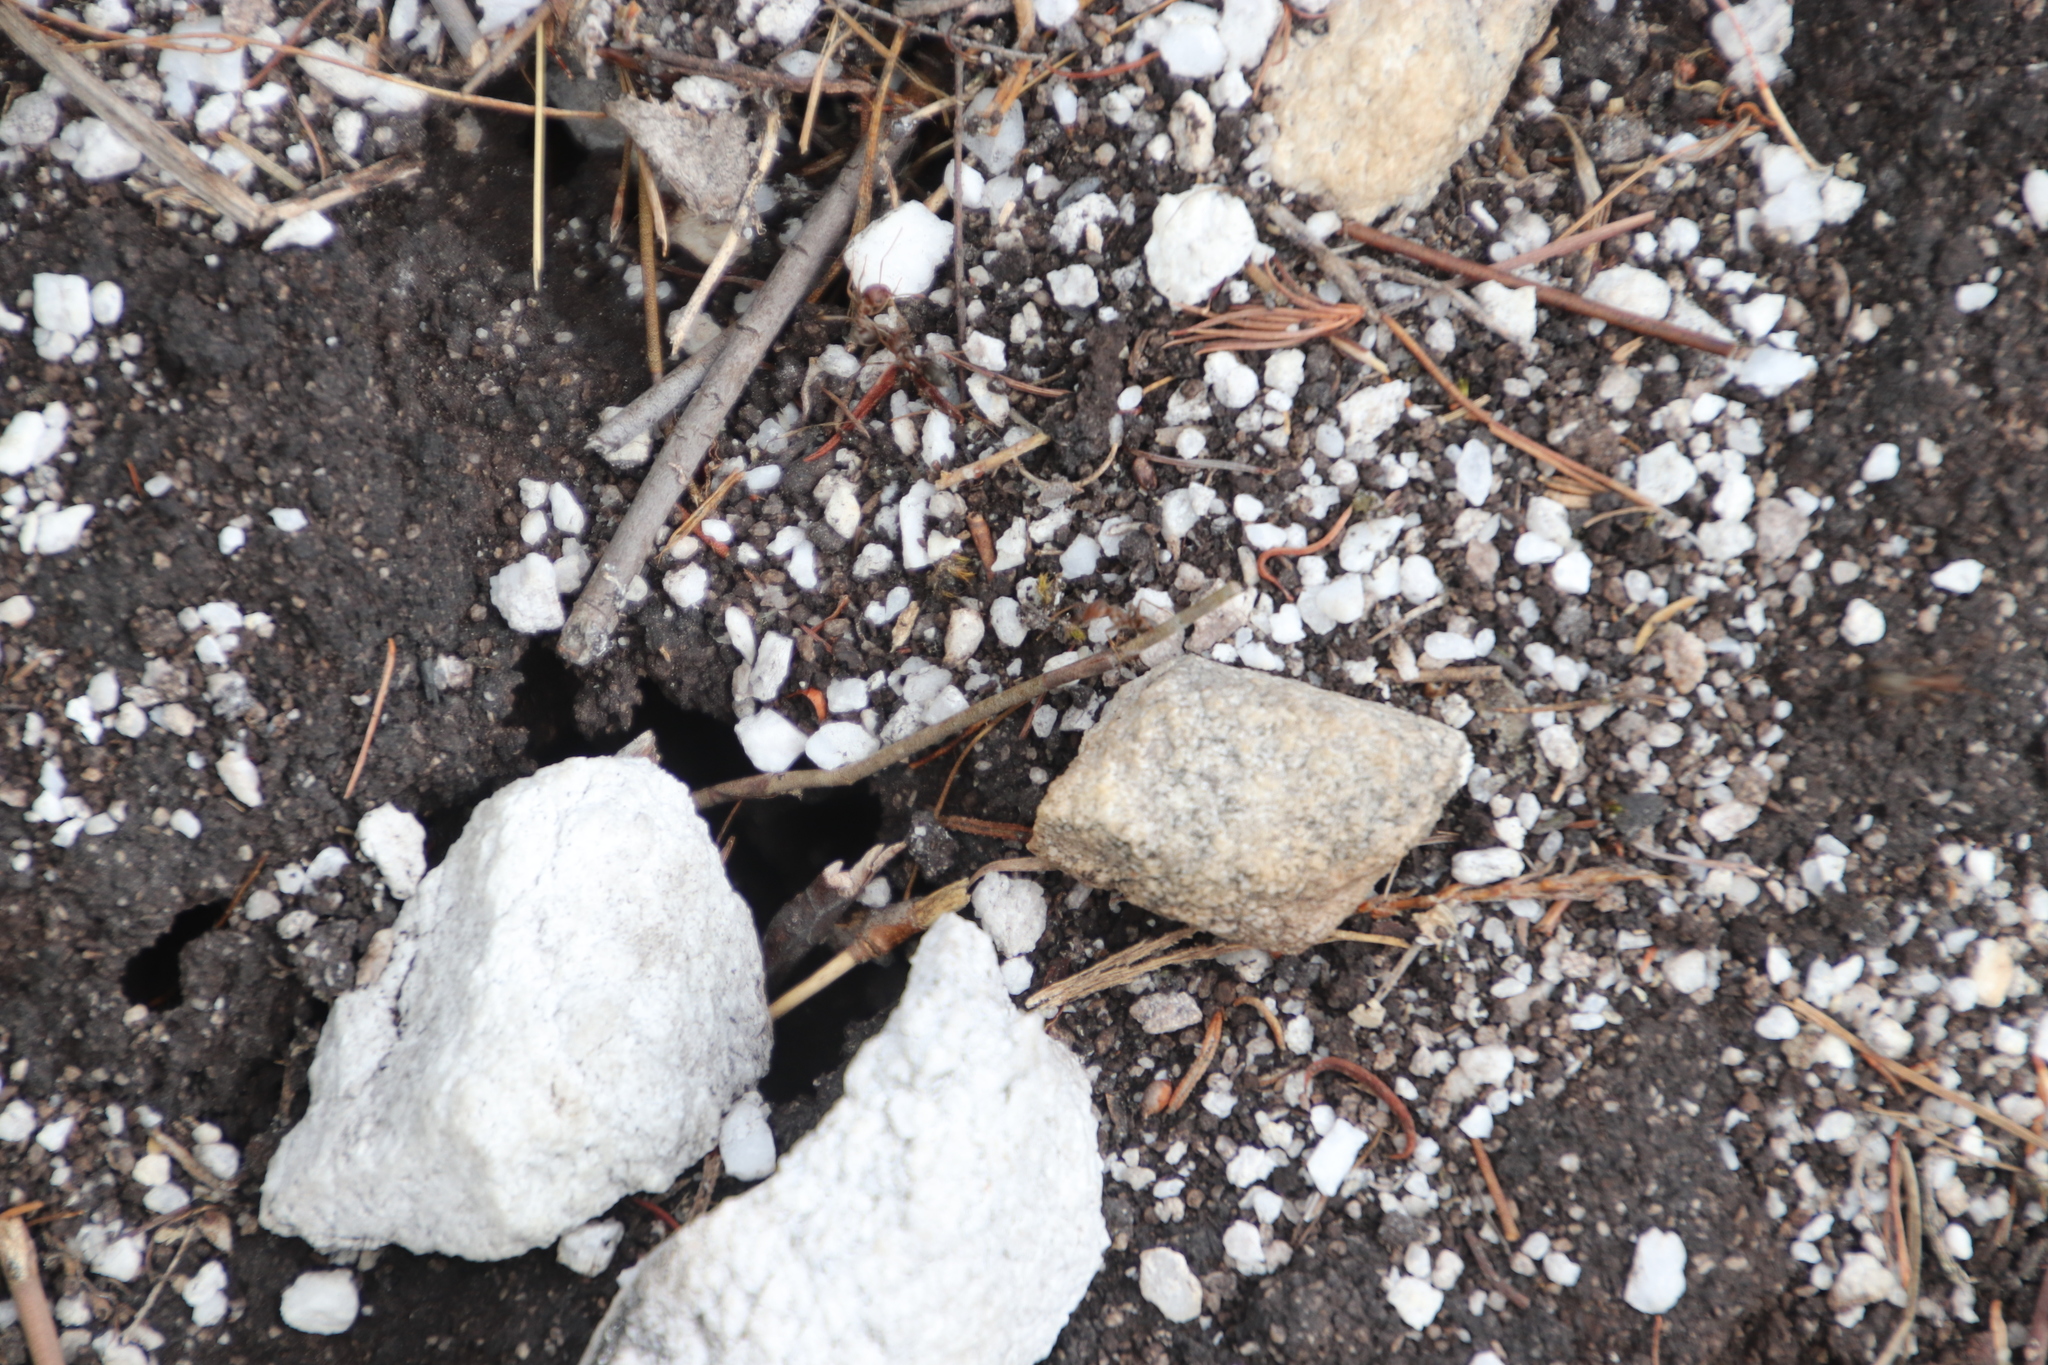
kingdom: Animalia
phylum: Arthropoda
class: Insecta
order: Hymenoptera
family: Formicidae
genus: Anoplolepis
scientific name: Anoplolepis steingroeveri
